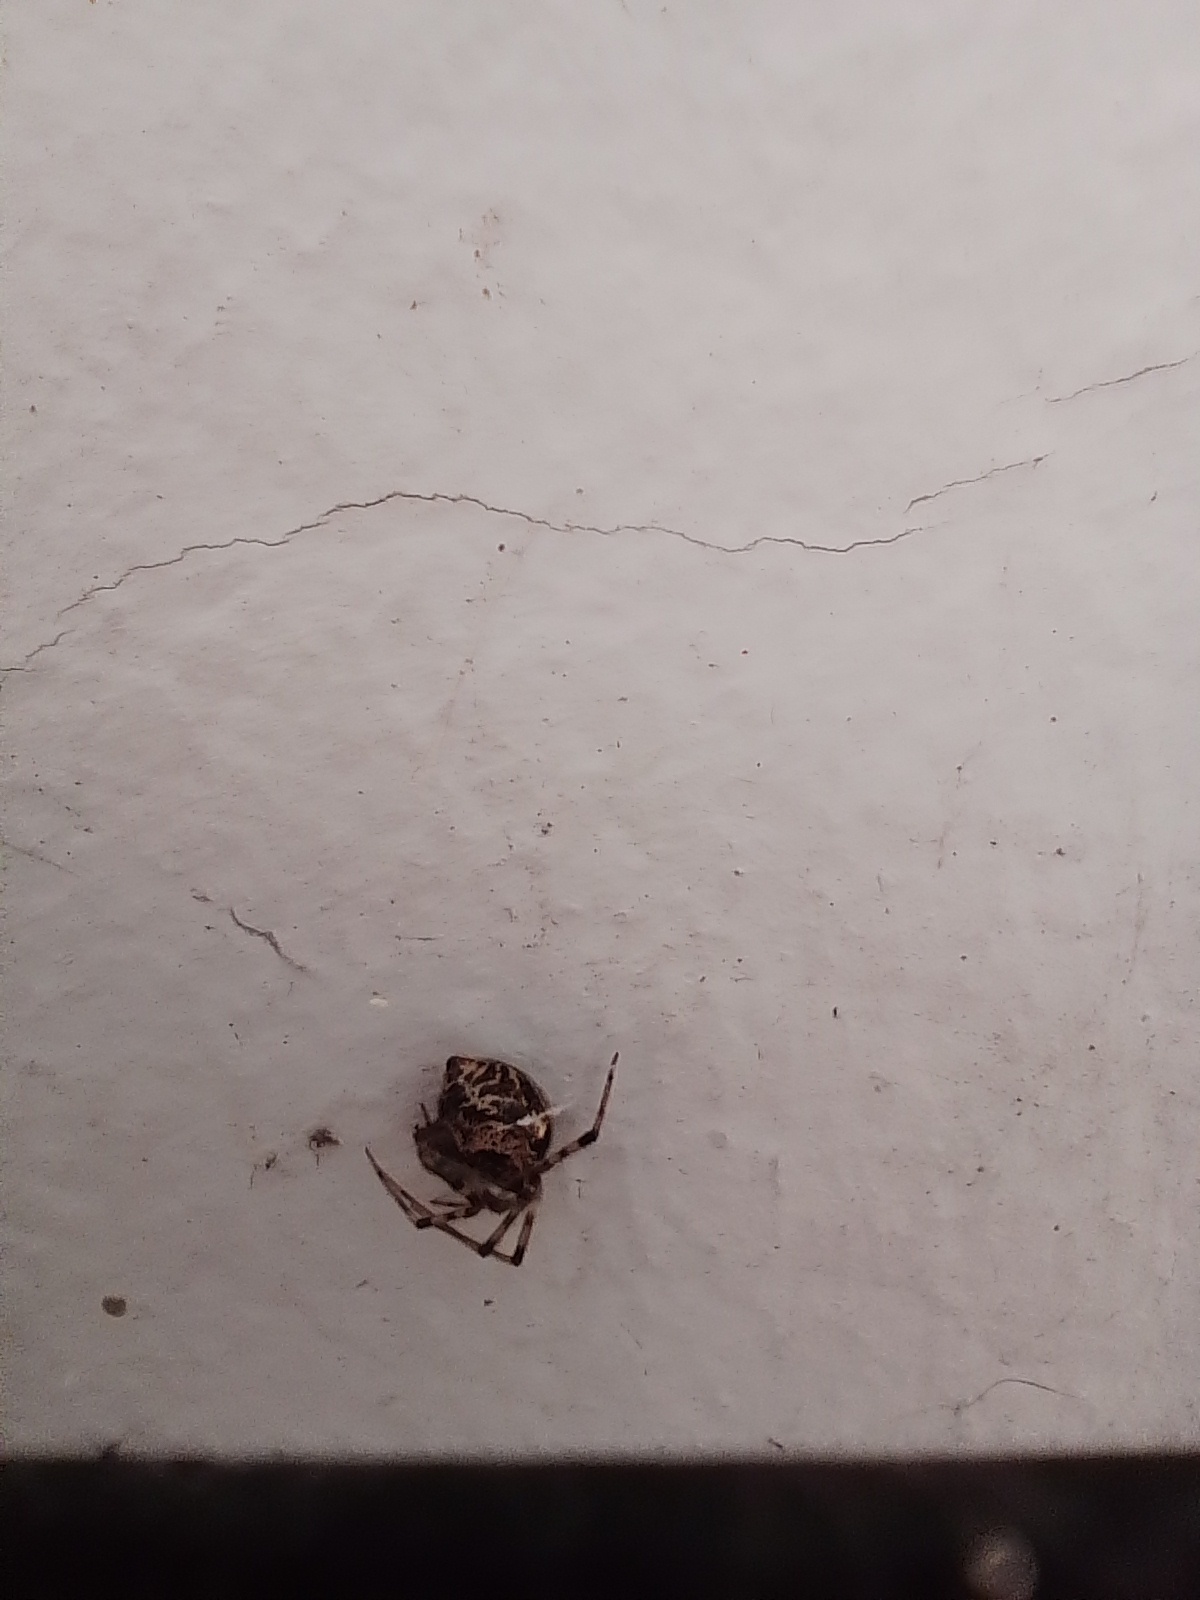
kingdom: Animalia
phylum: Arthropoda
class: Arachnida
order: Araneae
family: Theridiidae
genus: Parasteatoda
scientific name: Parasteatoda tepidariorum
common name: Common house spider
